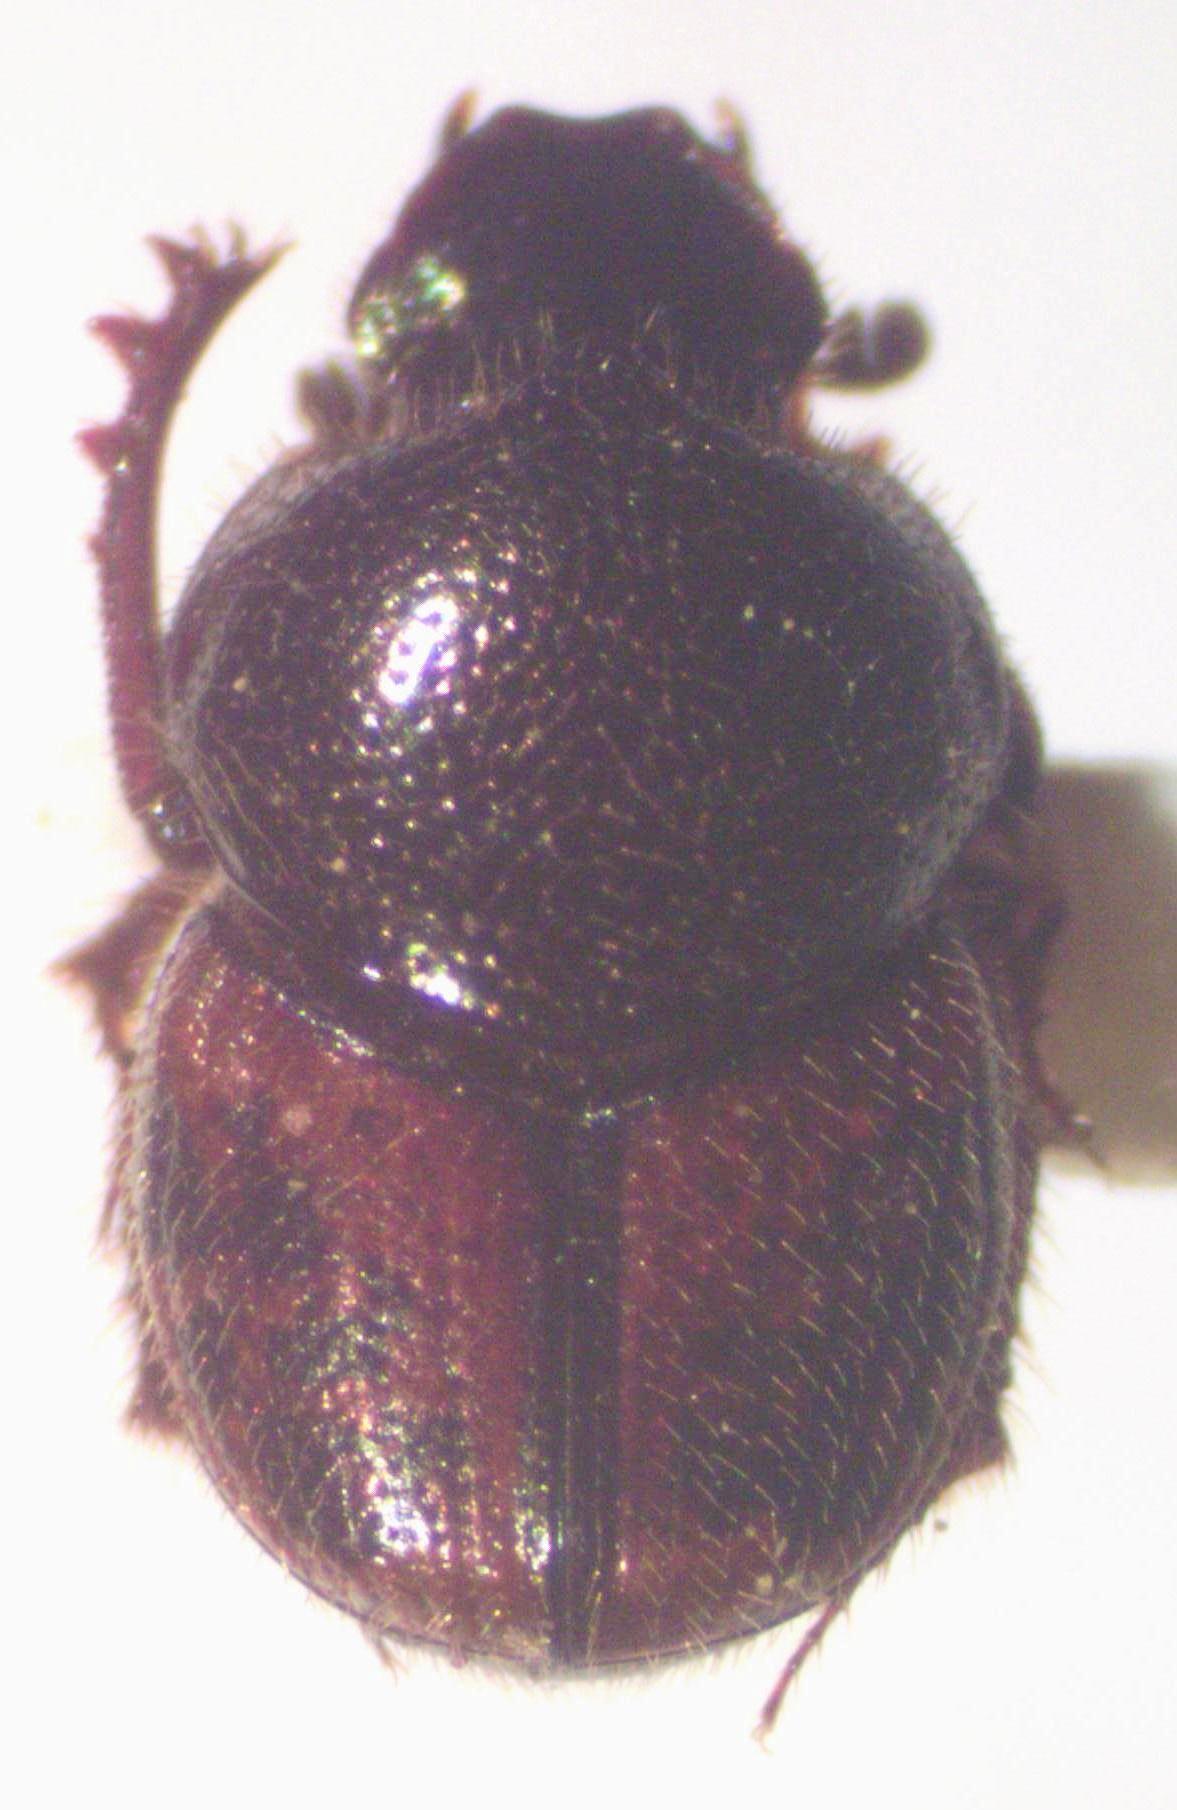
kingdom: Animalia
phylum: Arthropoda
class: Insecta
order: Coleoptera
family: Scarabaeidae
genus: Onthophagus
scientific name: Onthophagus hoepfneri
